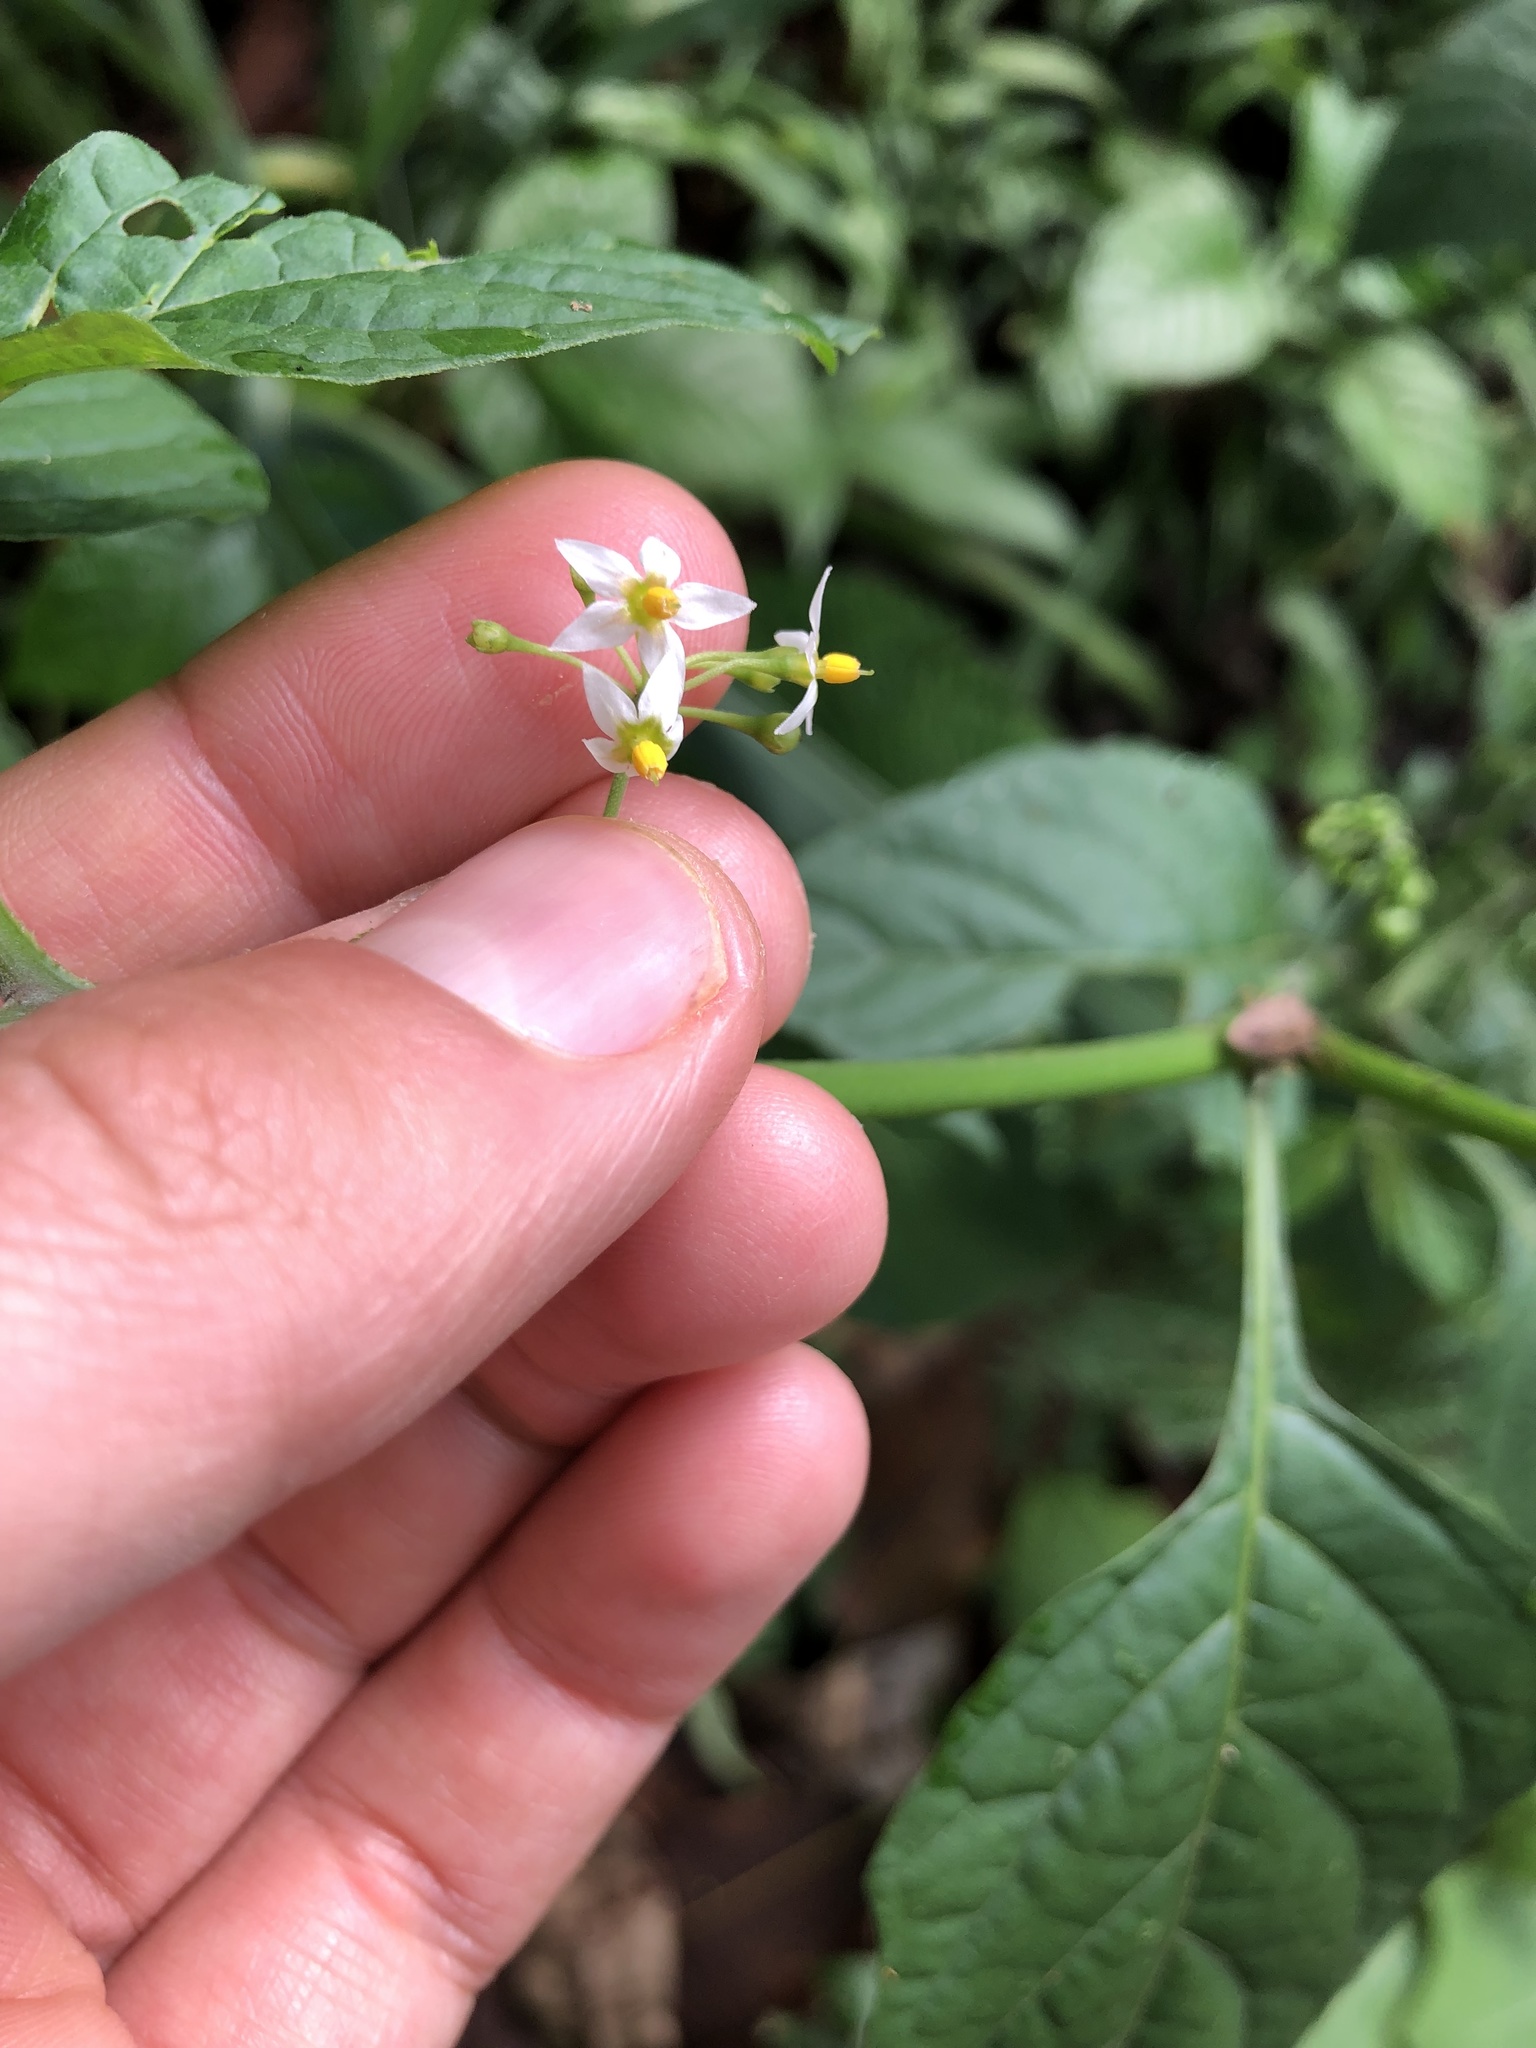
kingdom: Plantae
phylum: Tracheophyta
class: Magnoliopsida
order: Solanales
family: Solanaceae
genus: Solanum
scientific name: Solanum americanum
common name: American black nightshade
